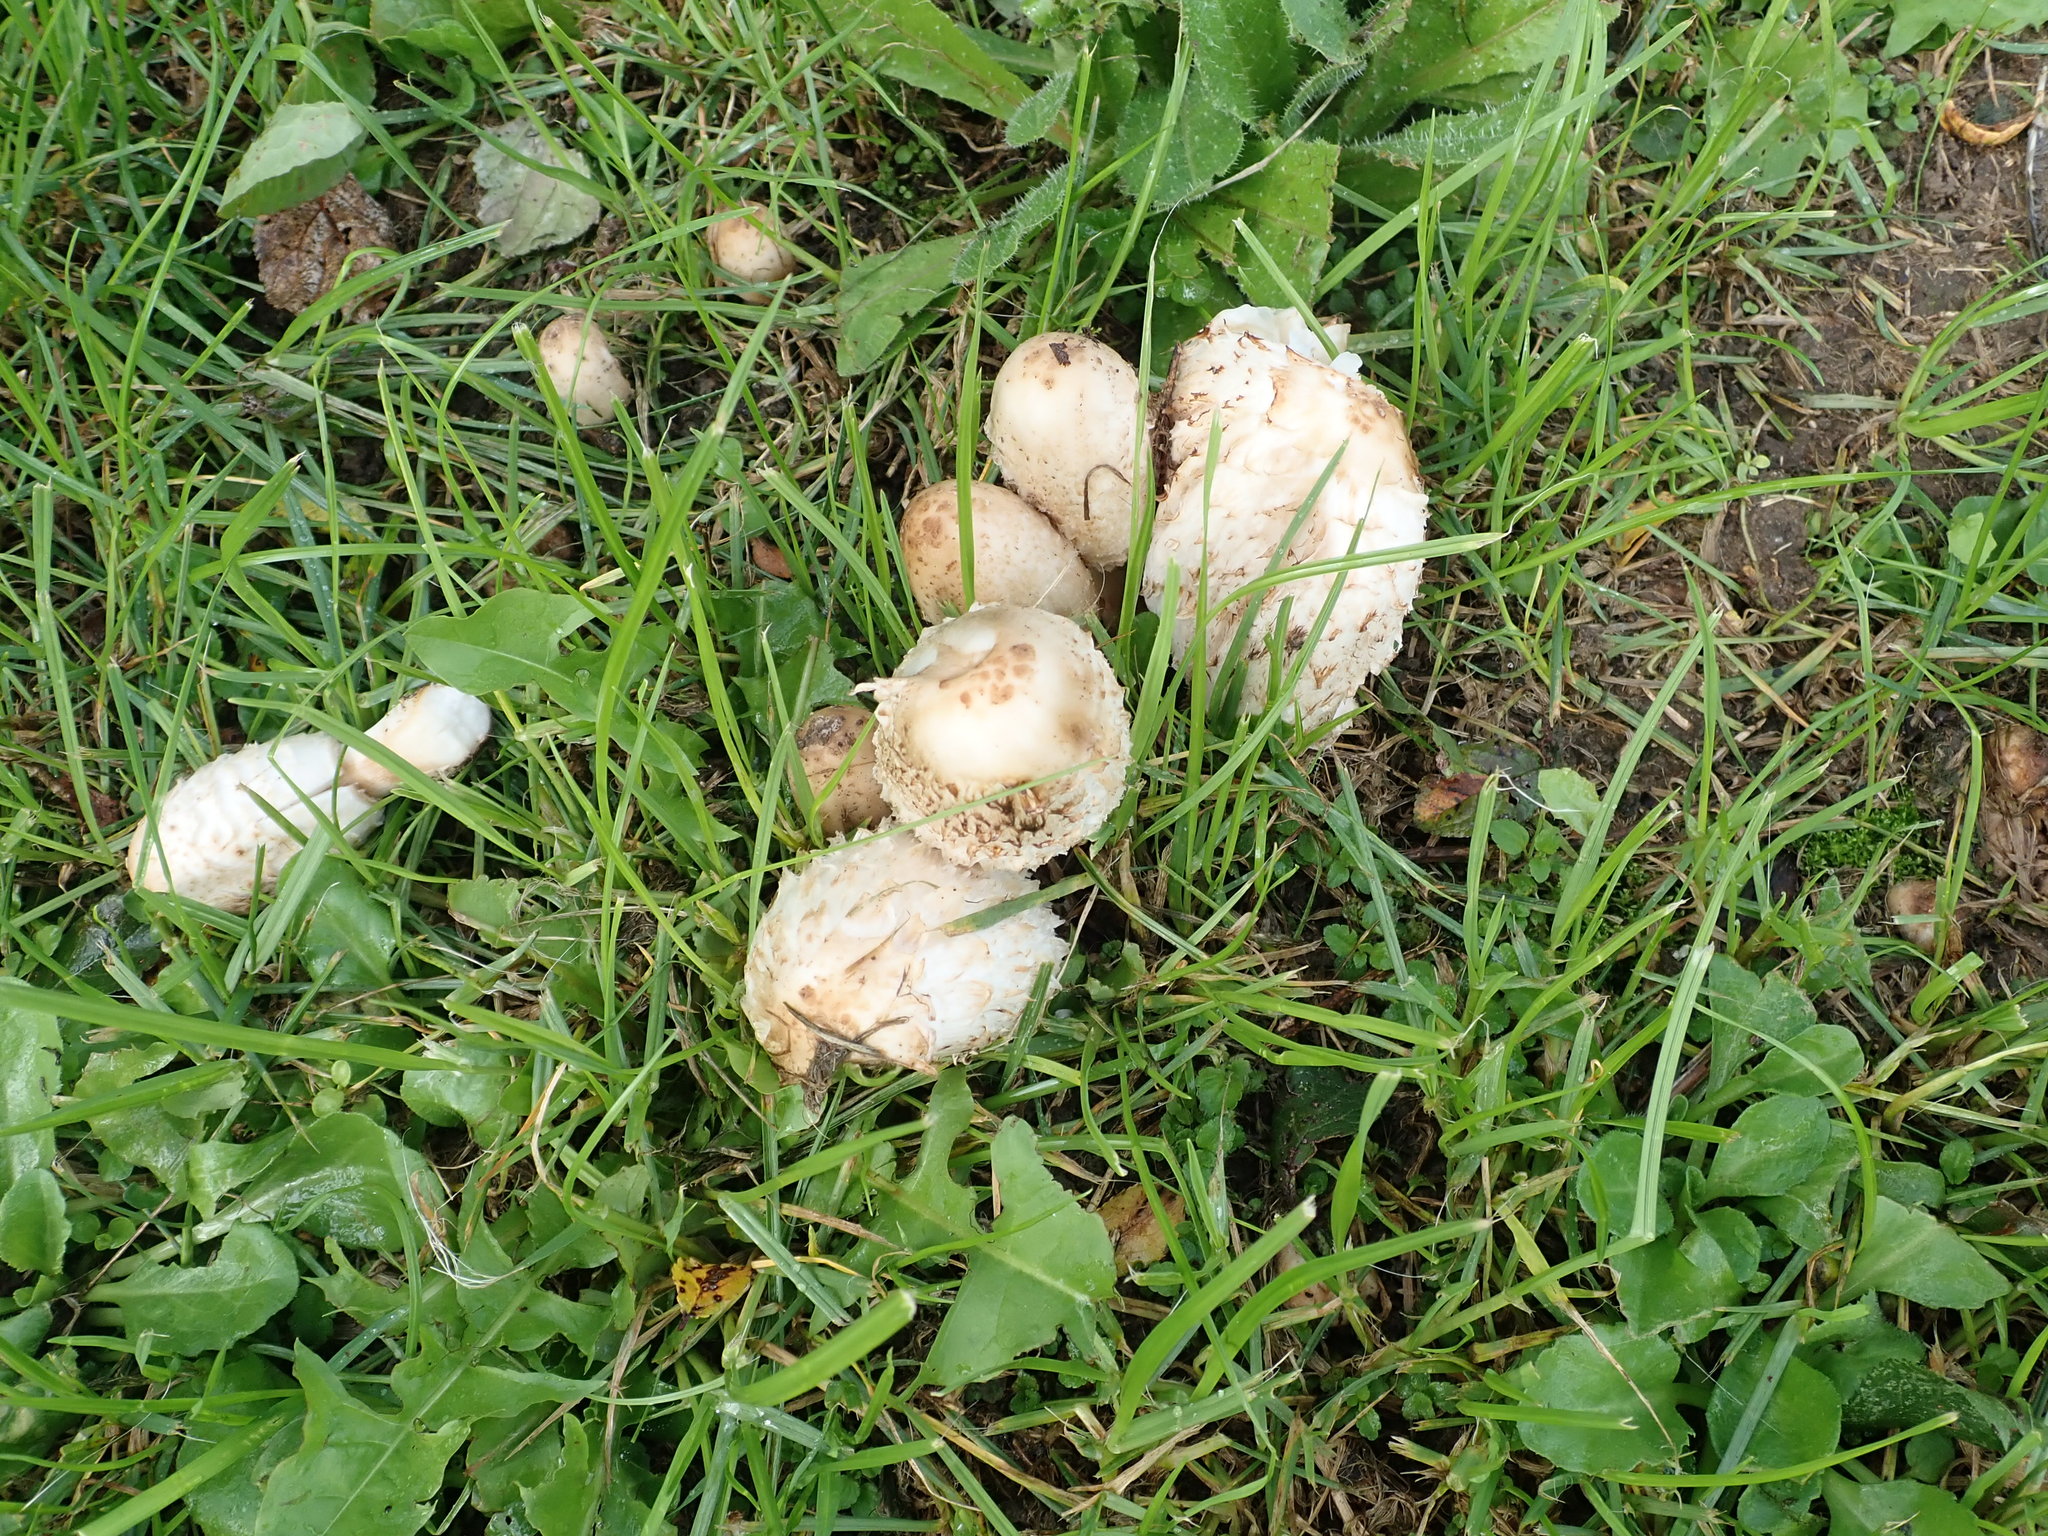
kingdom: Fungi
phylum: Basidiomycota
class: Agaricomycetes
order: Agaricales
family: Agaricaceae
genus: Coprinus
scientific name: Coprinus comatus
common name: Lawyer's wig
